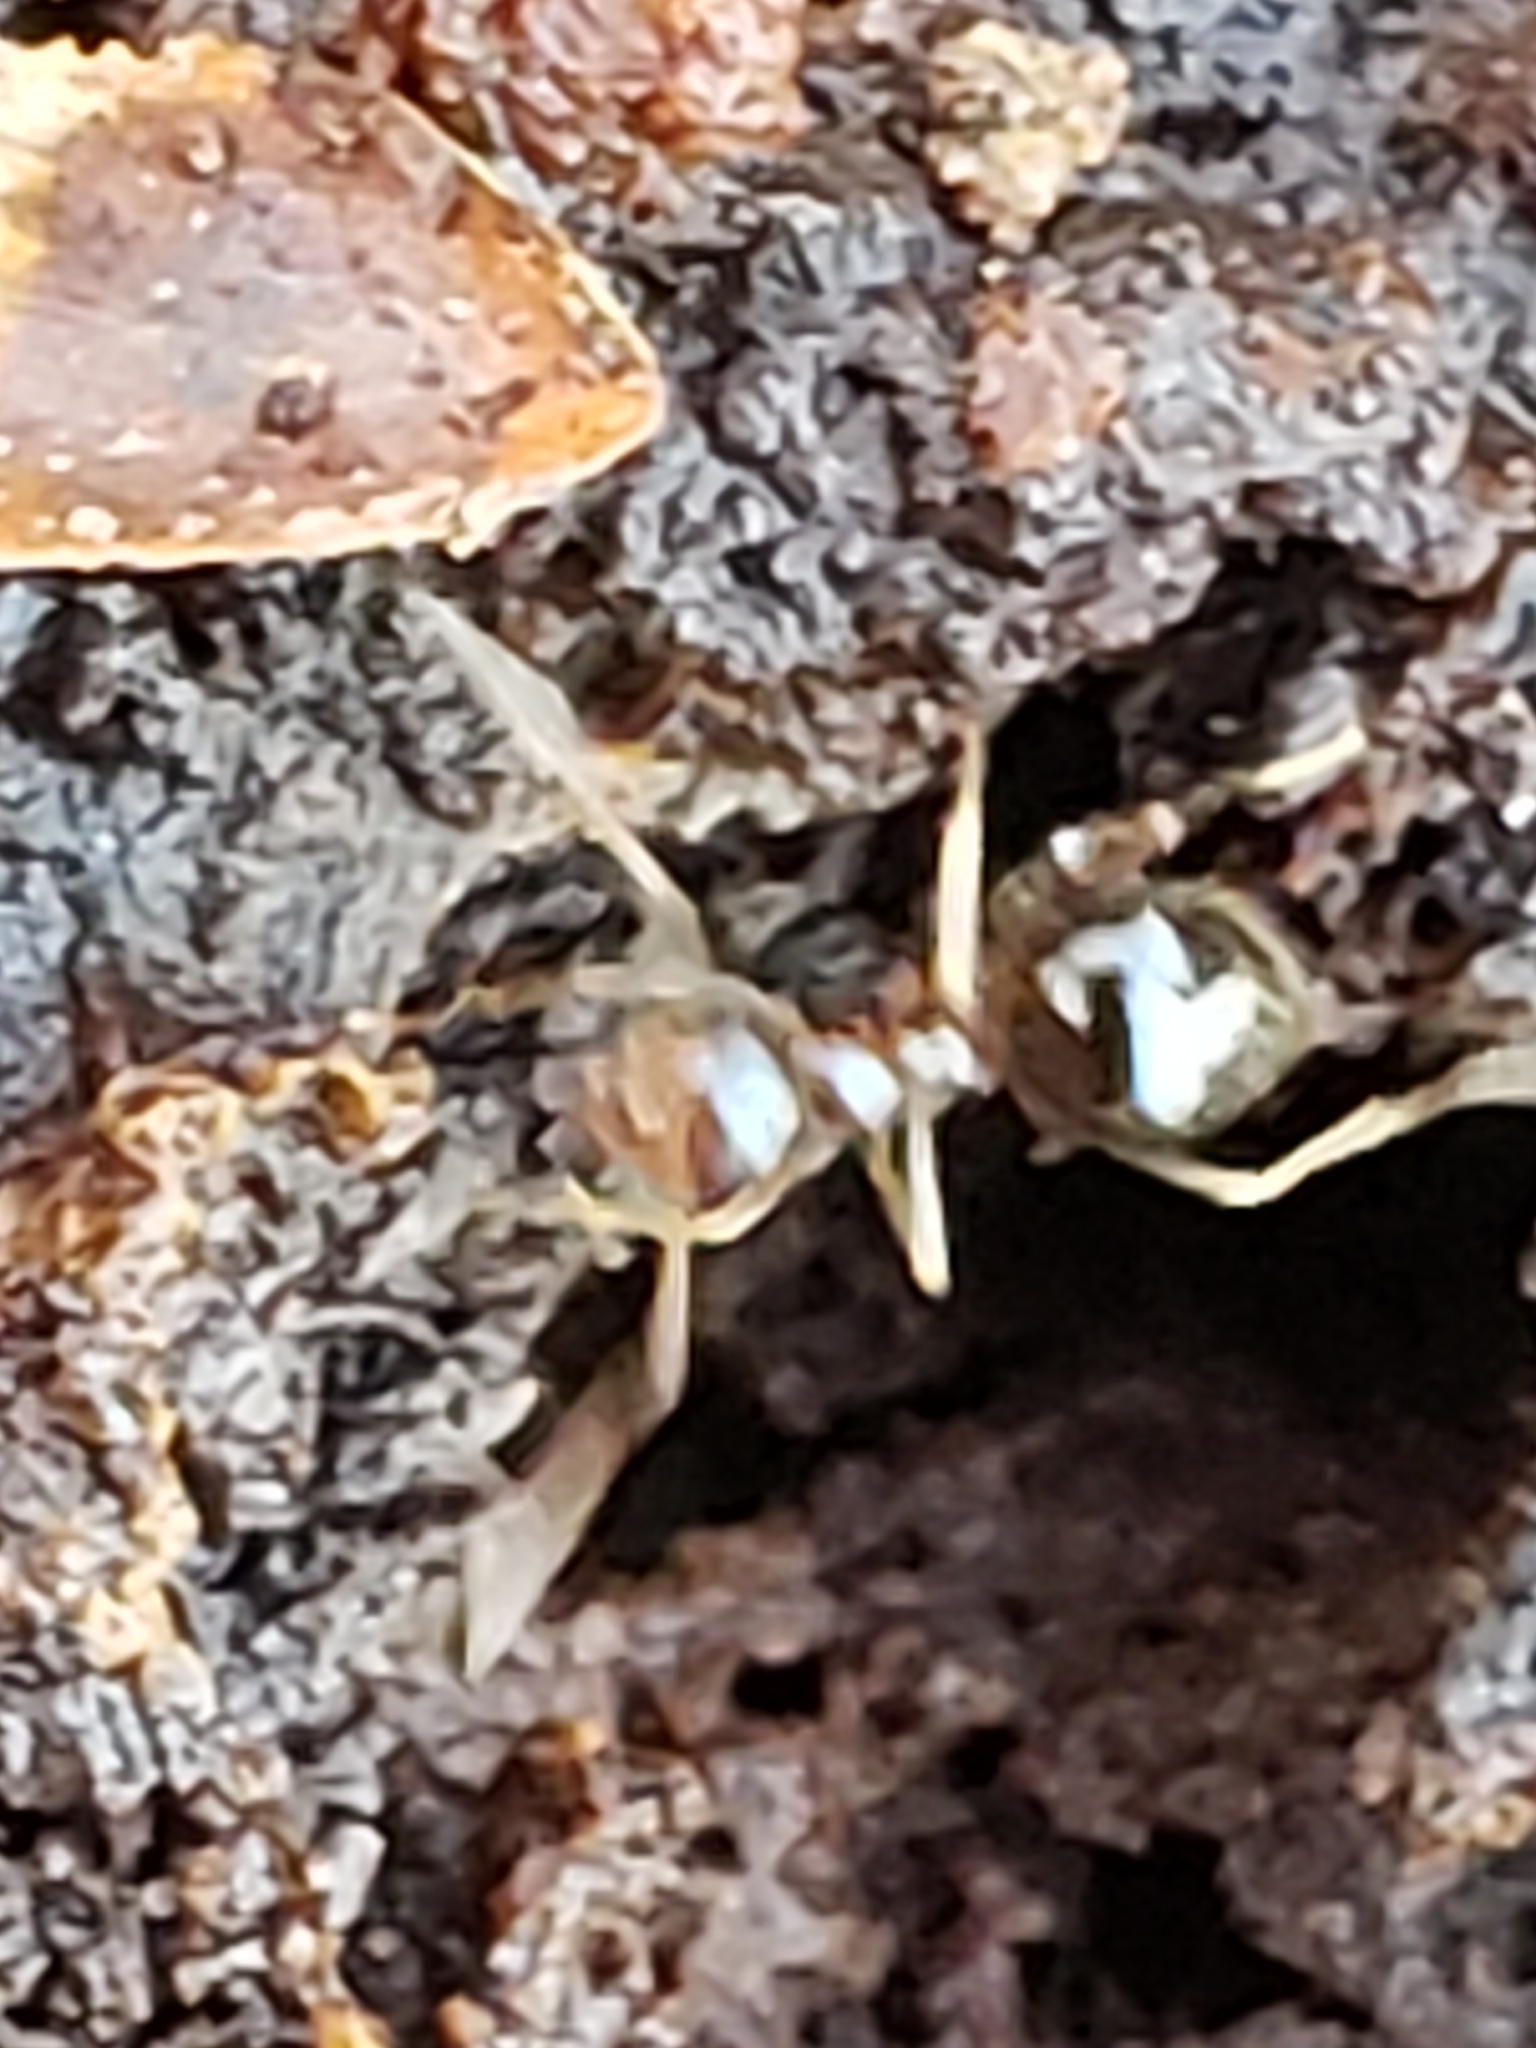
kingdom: Animalia
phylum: Arthropoda
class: Insecta
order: Hymenoptera
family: Formicidae
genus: Prenolepis
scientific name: Prenolepis imparis
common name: Small honey ant
